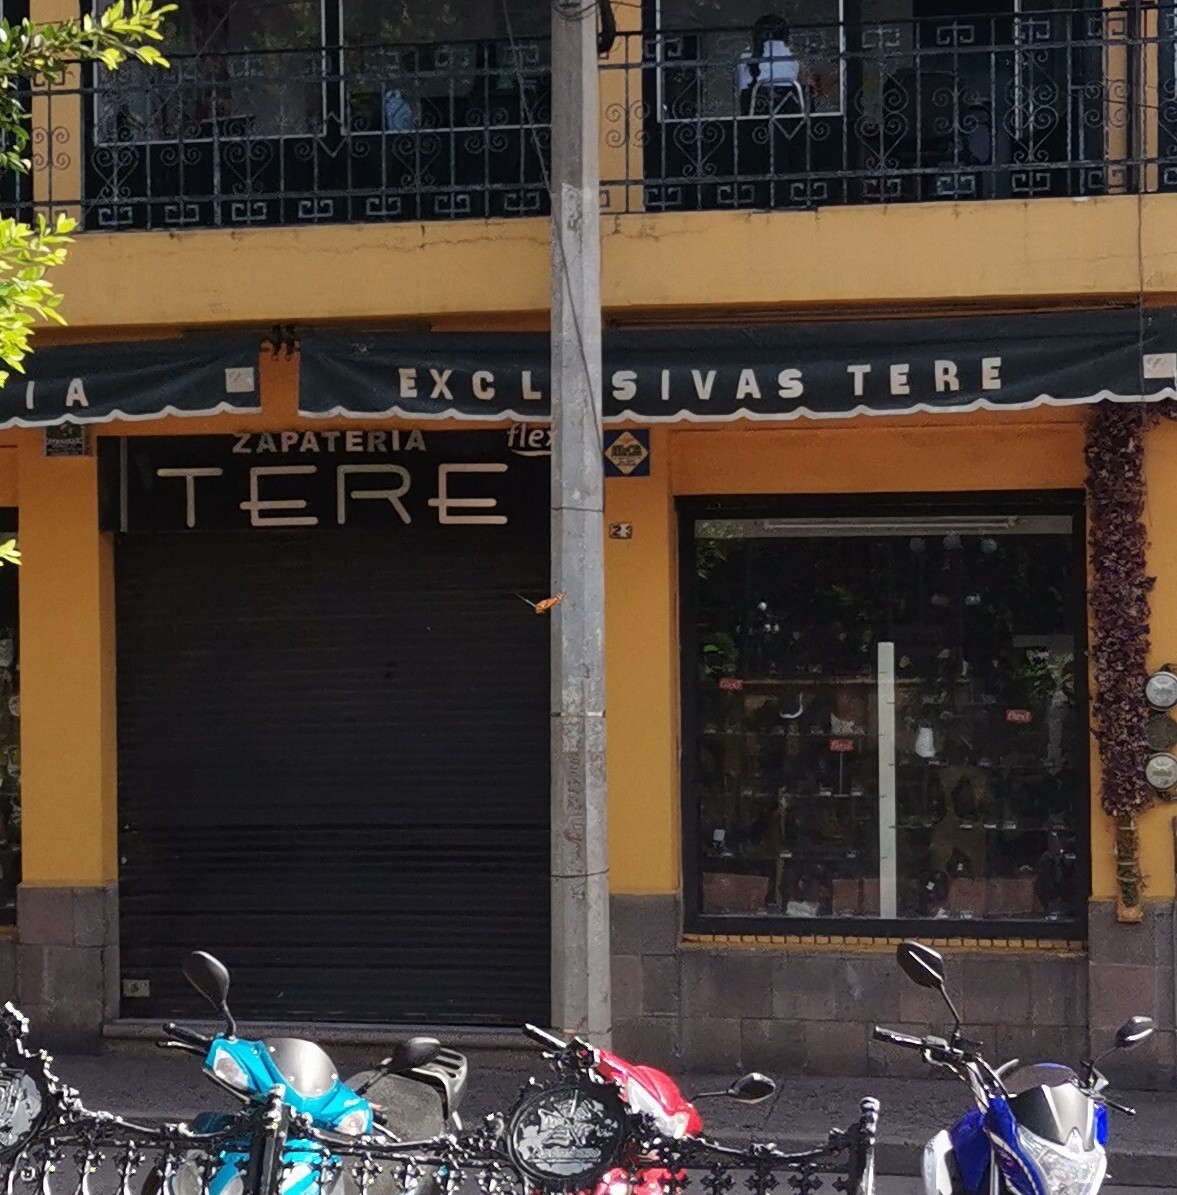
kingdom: Animalia
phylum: Arthropoda
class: Insecta
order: Lepidoptera
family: Nymphalidae
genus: Danaus
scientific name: Danaus plexippus
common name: Monarch
